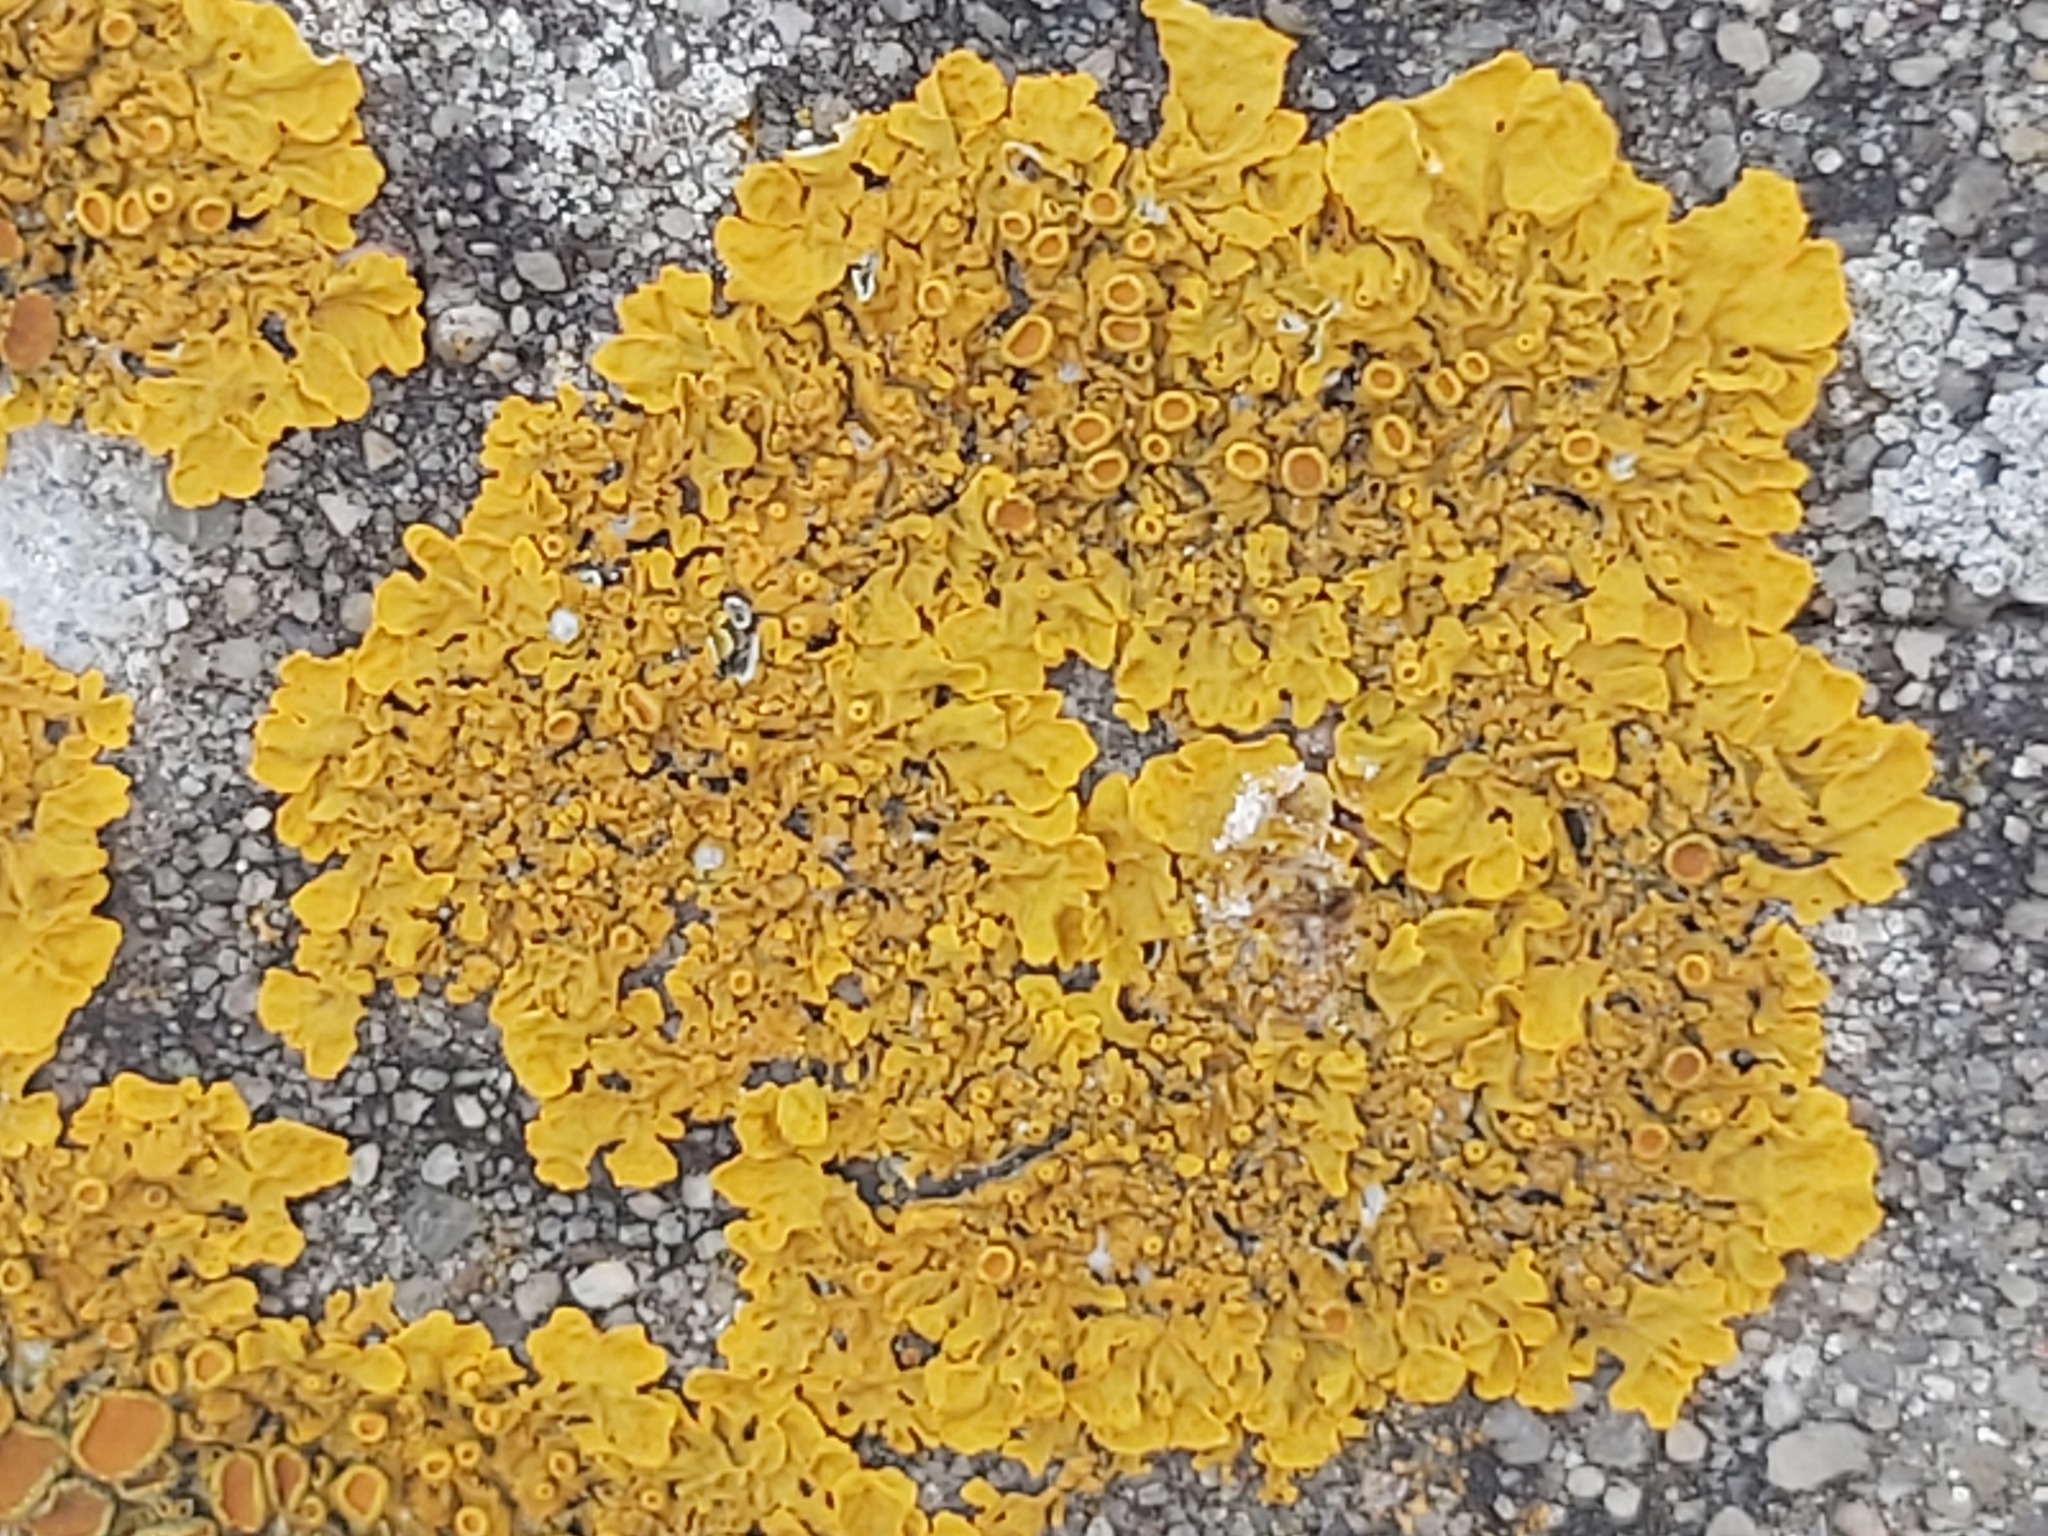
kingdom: Fungi
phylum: Ascomycota
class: Lecanoromycetes
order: Teloschistales
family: Teloschistaceae
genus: Xanthoria
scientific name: Xanthoria parietina
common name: Common orange lichen
